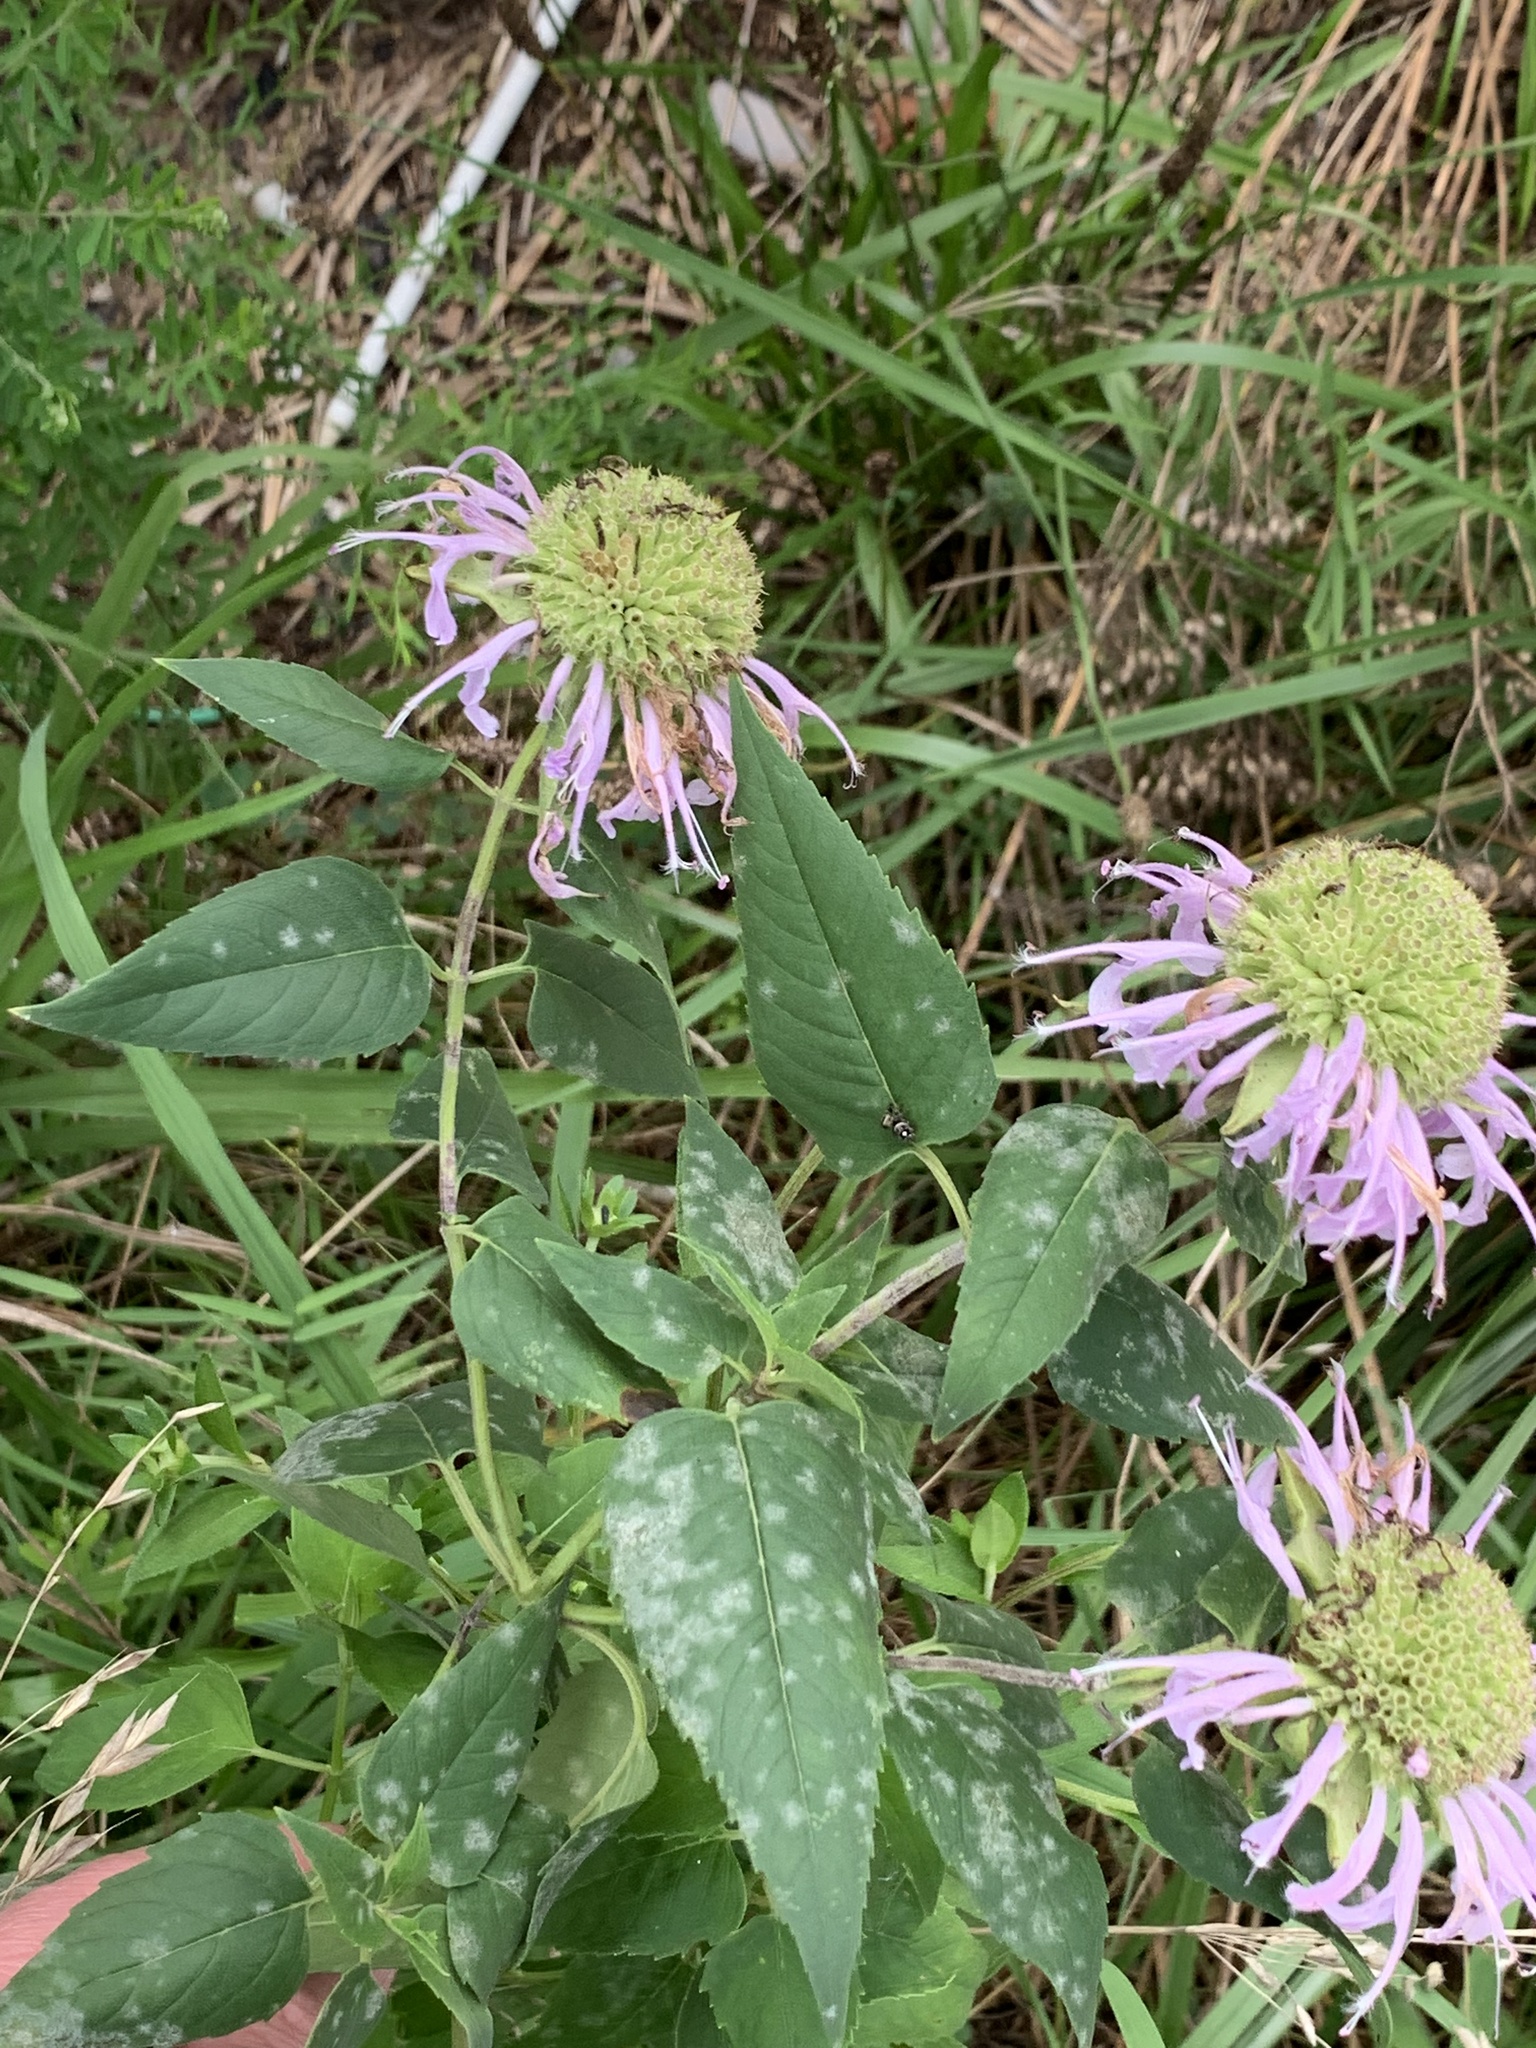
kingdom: Plantae
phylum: Tracheophyta
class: Magnoliopsida
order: Lamiales
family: Lamiaceae
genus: Monarda
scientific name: Monarda fistulosa
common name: Purple beebalm
